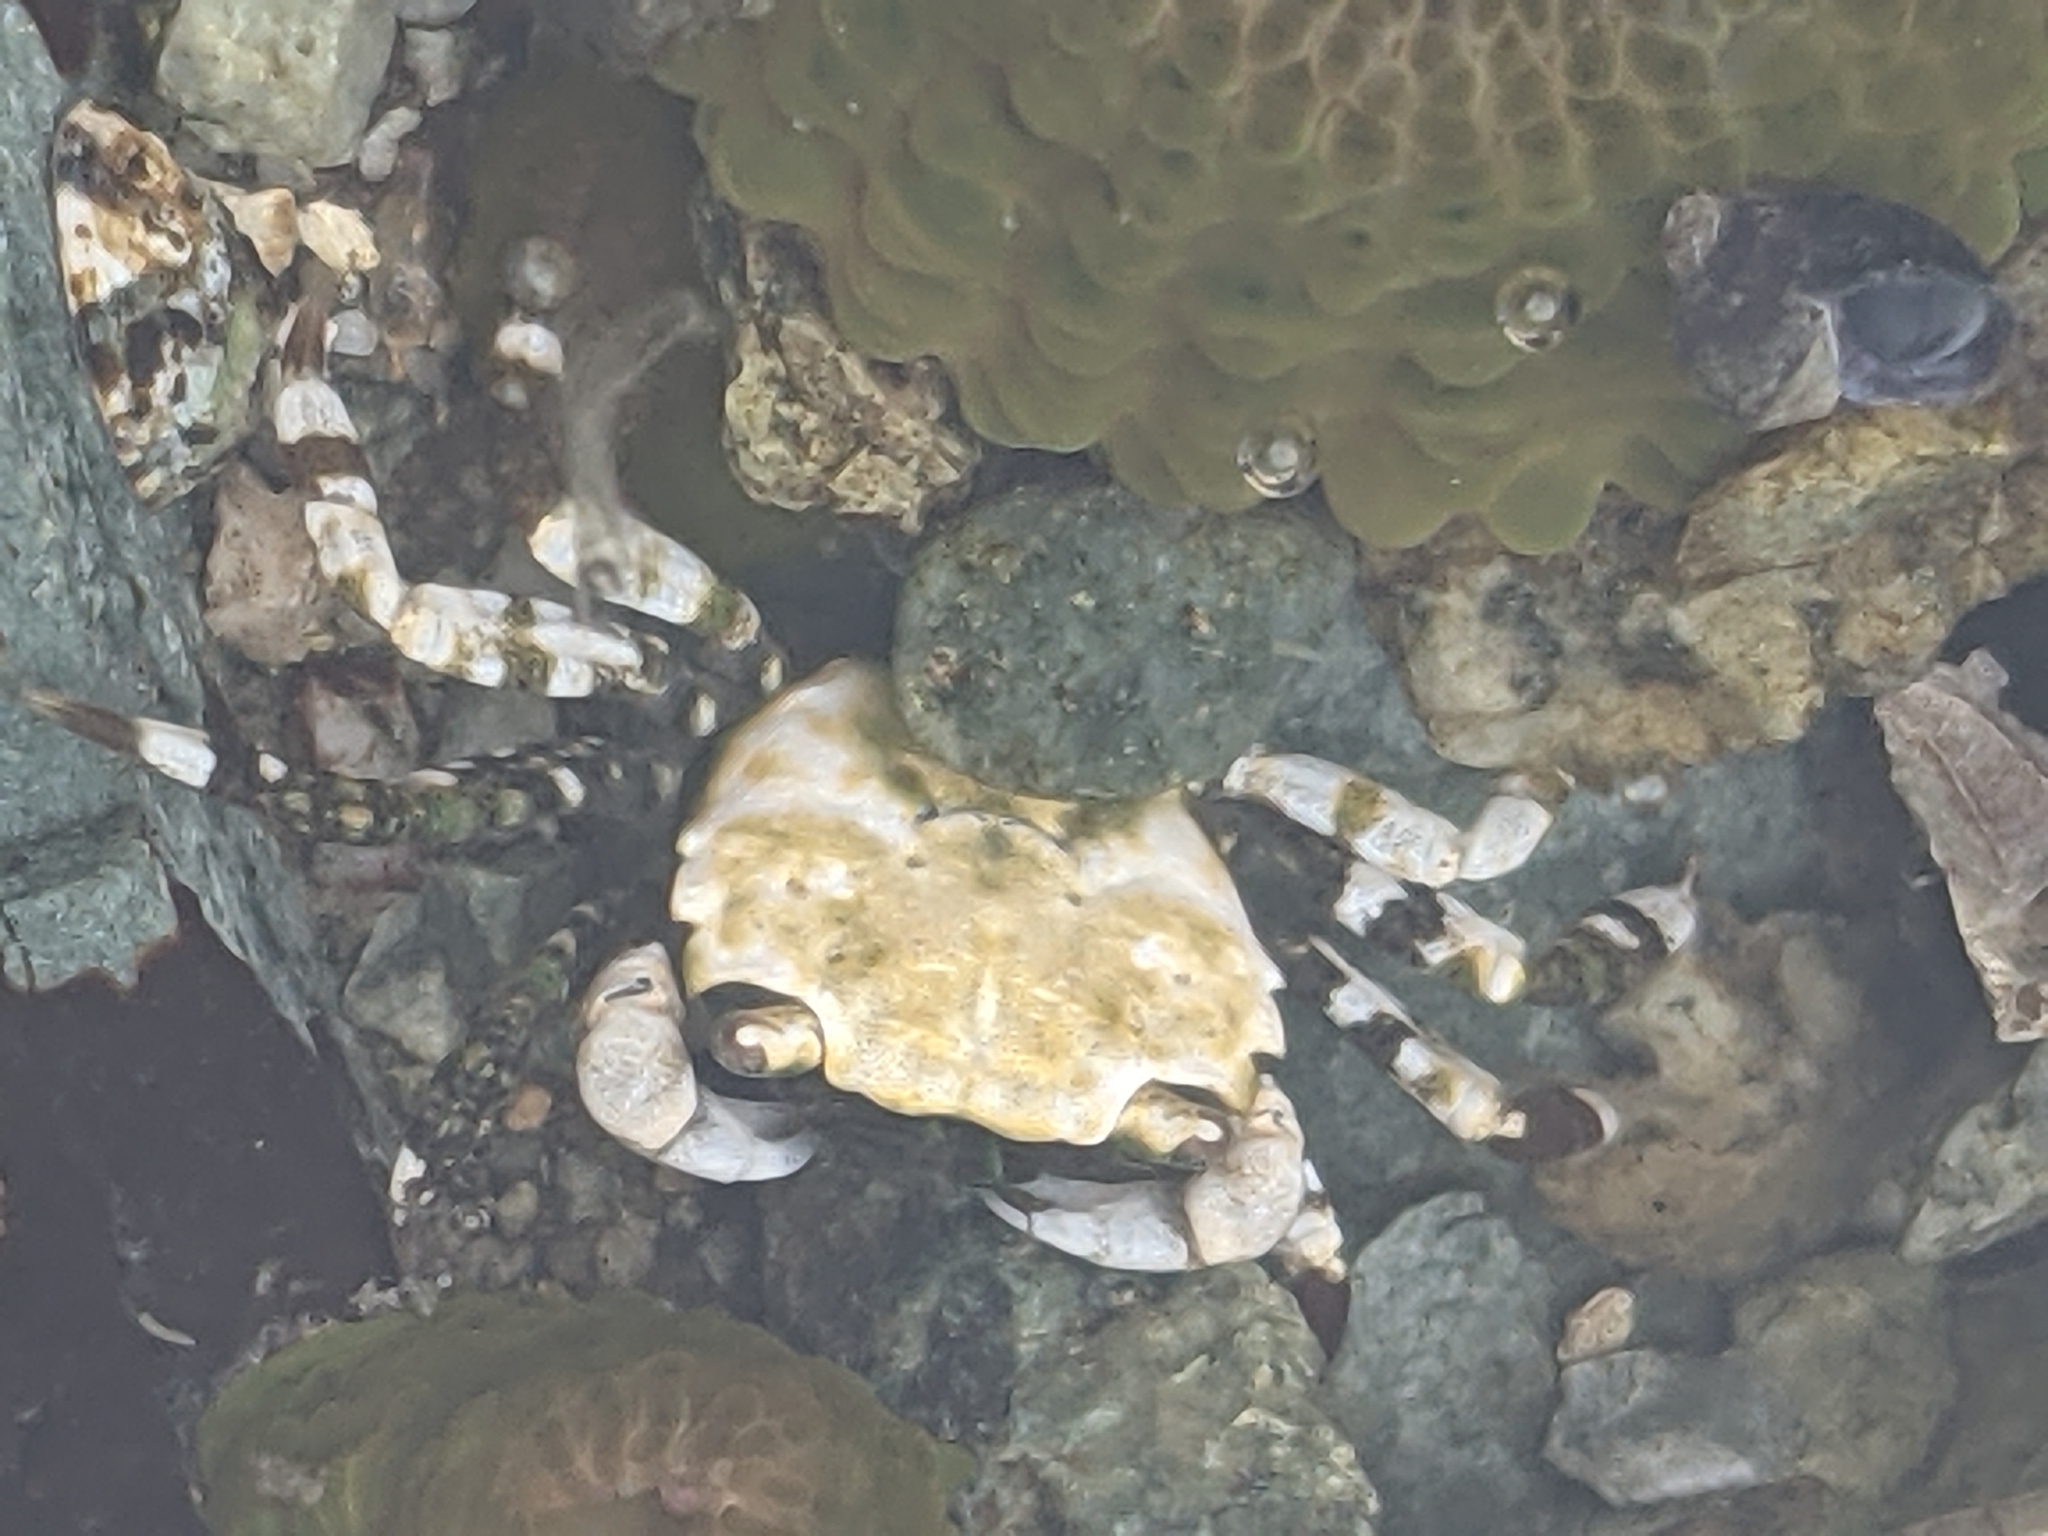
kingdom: Animalia
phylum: Arthropoda
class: Malacostraca
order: Decapoda
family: Varunidae
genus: Hemigrapsus
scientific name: Hemigrapsus oregonensis
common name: Yellow shore crab
